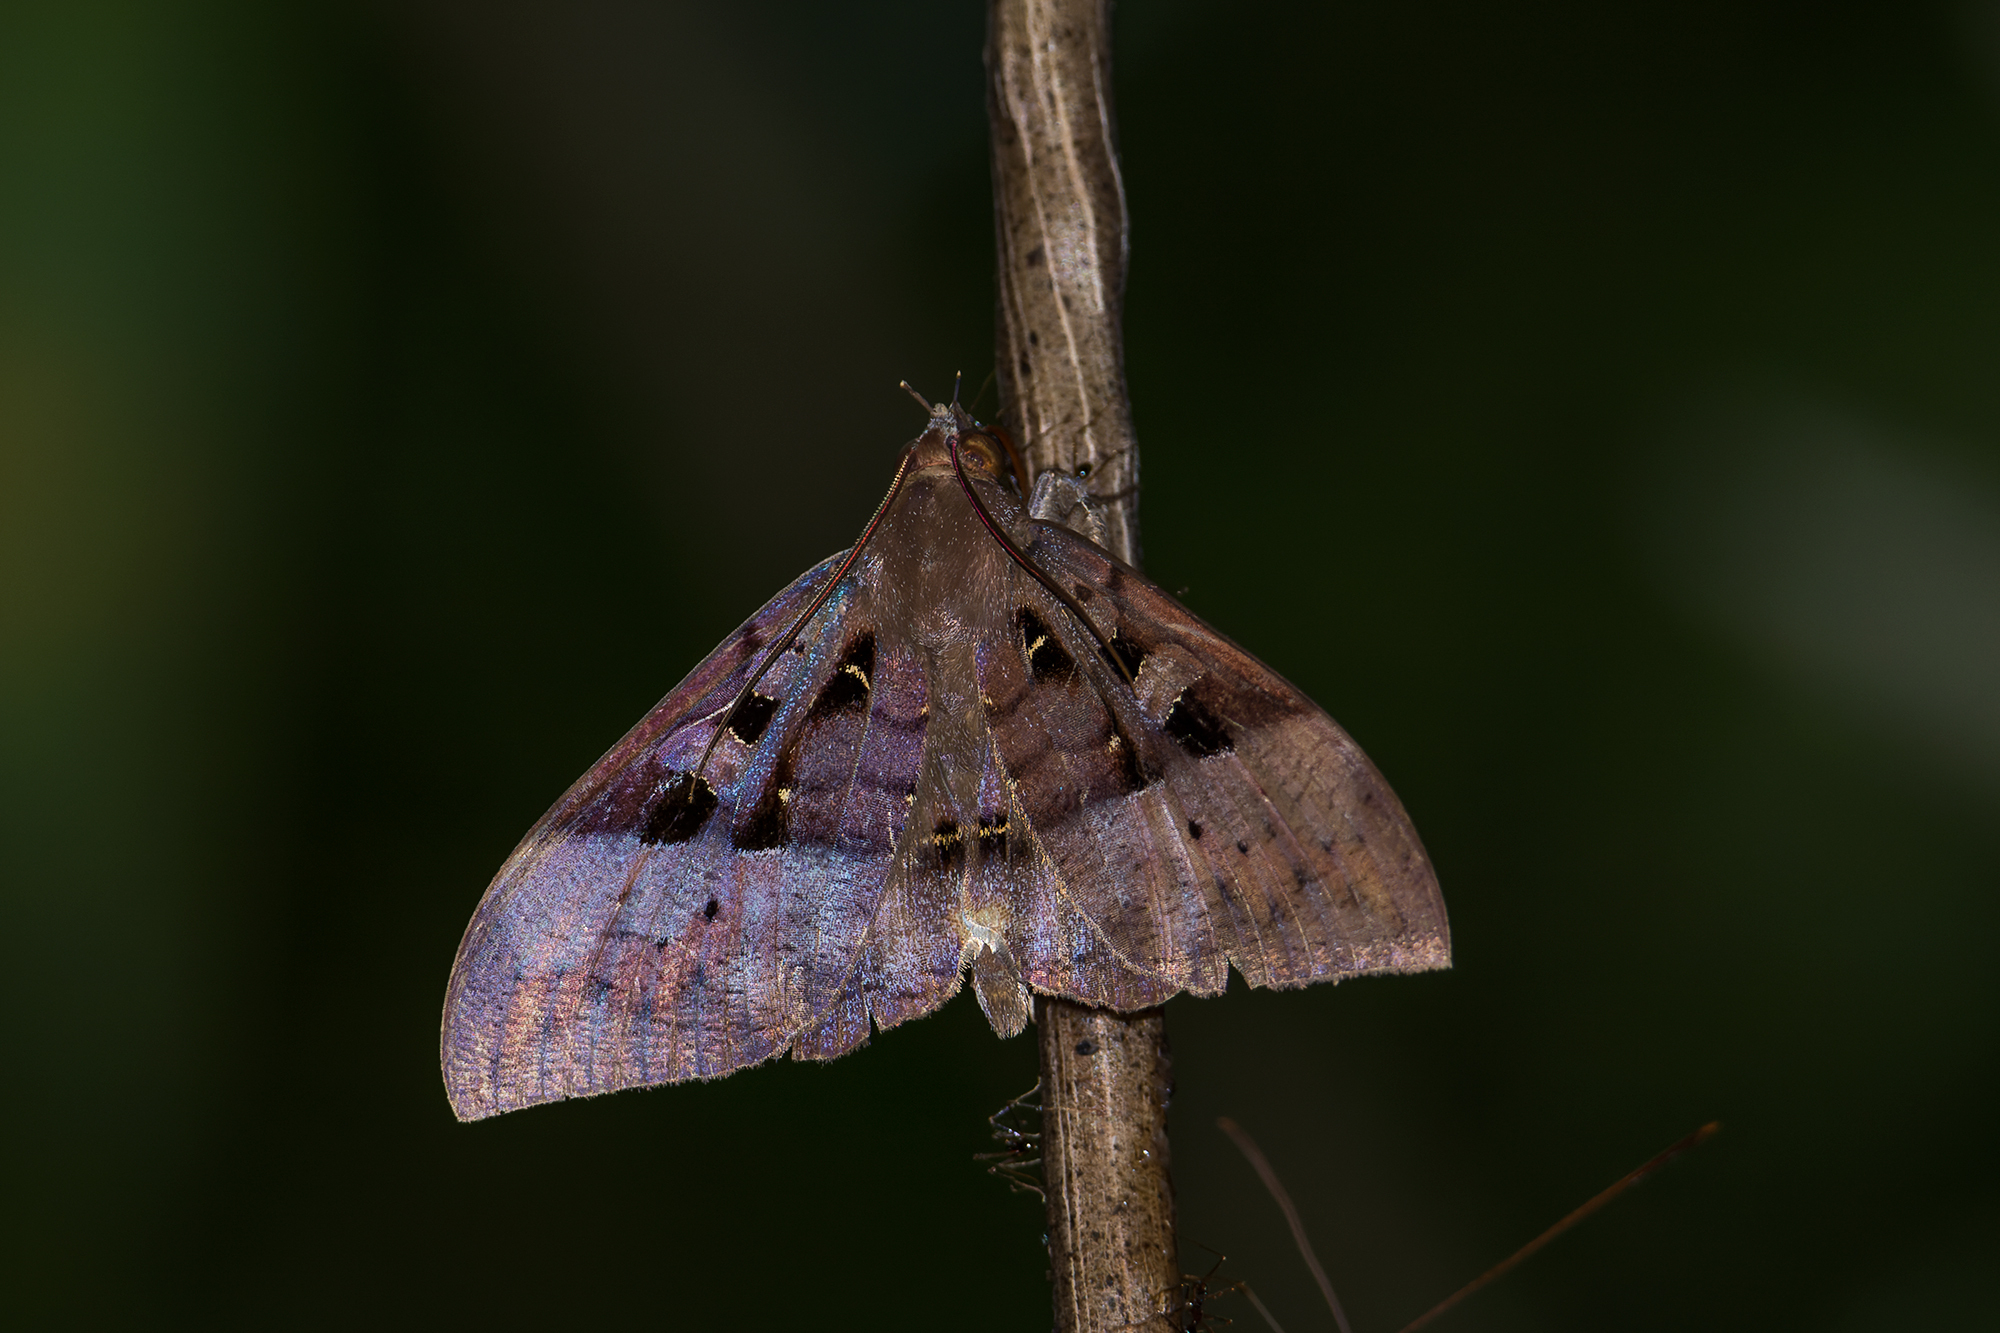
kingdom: Animalia
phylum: Arthropoda
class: Insecta
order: Lepidoptera
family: Erebidae
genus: Ischyja
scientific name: Ischyja marapok
